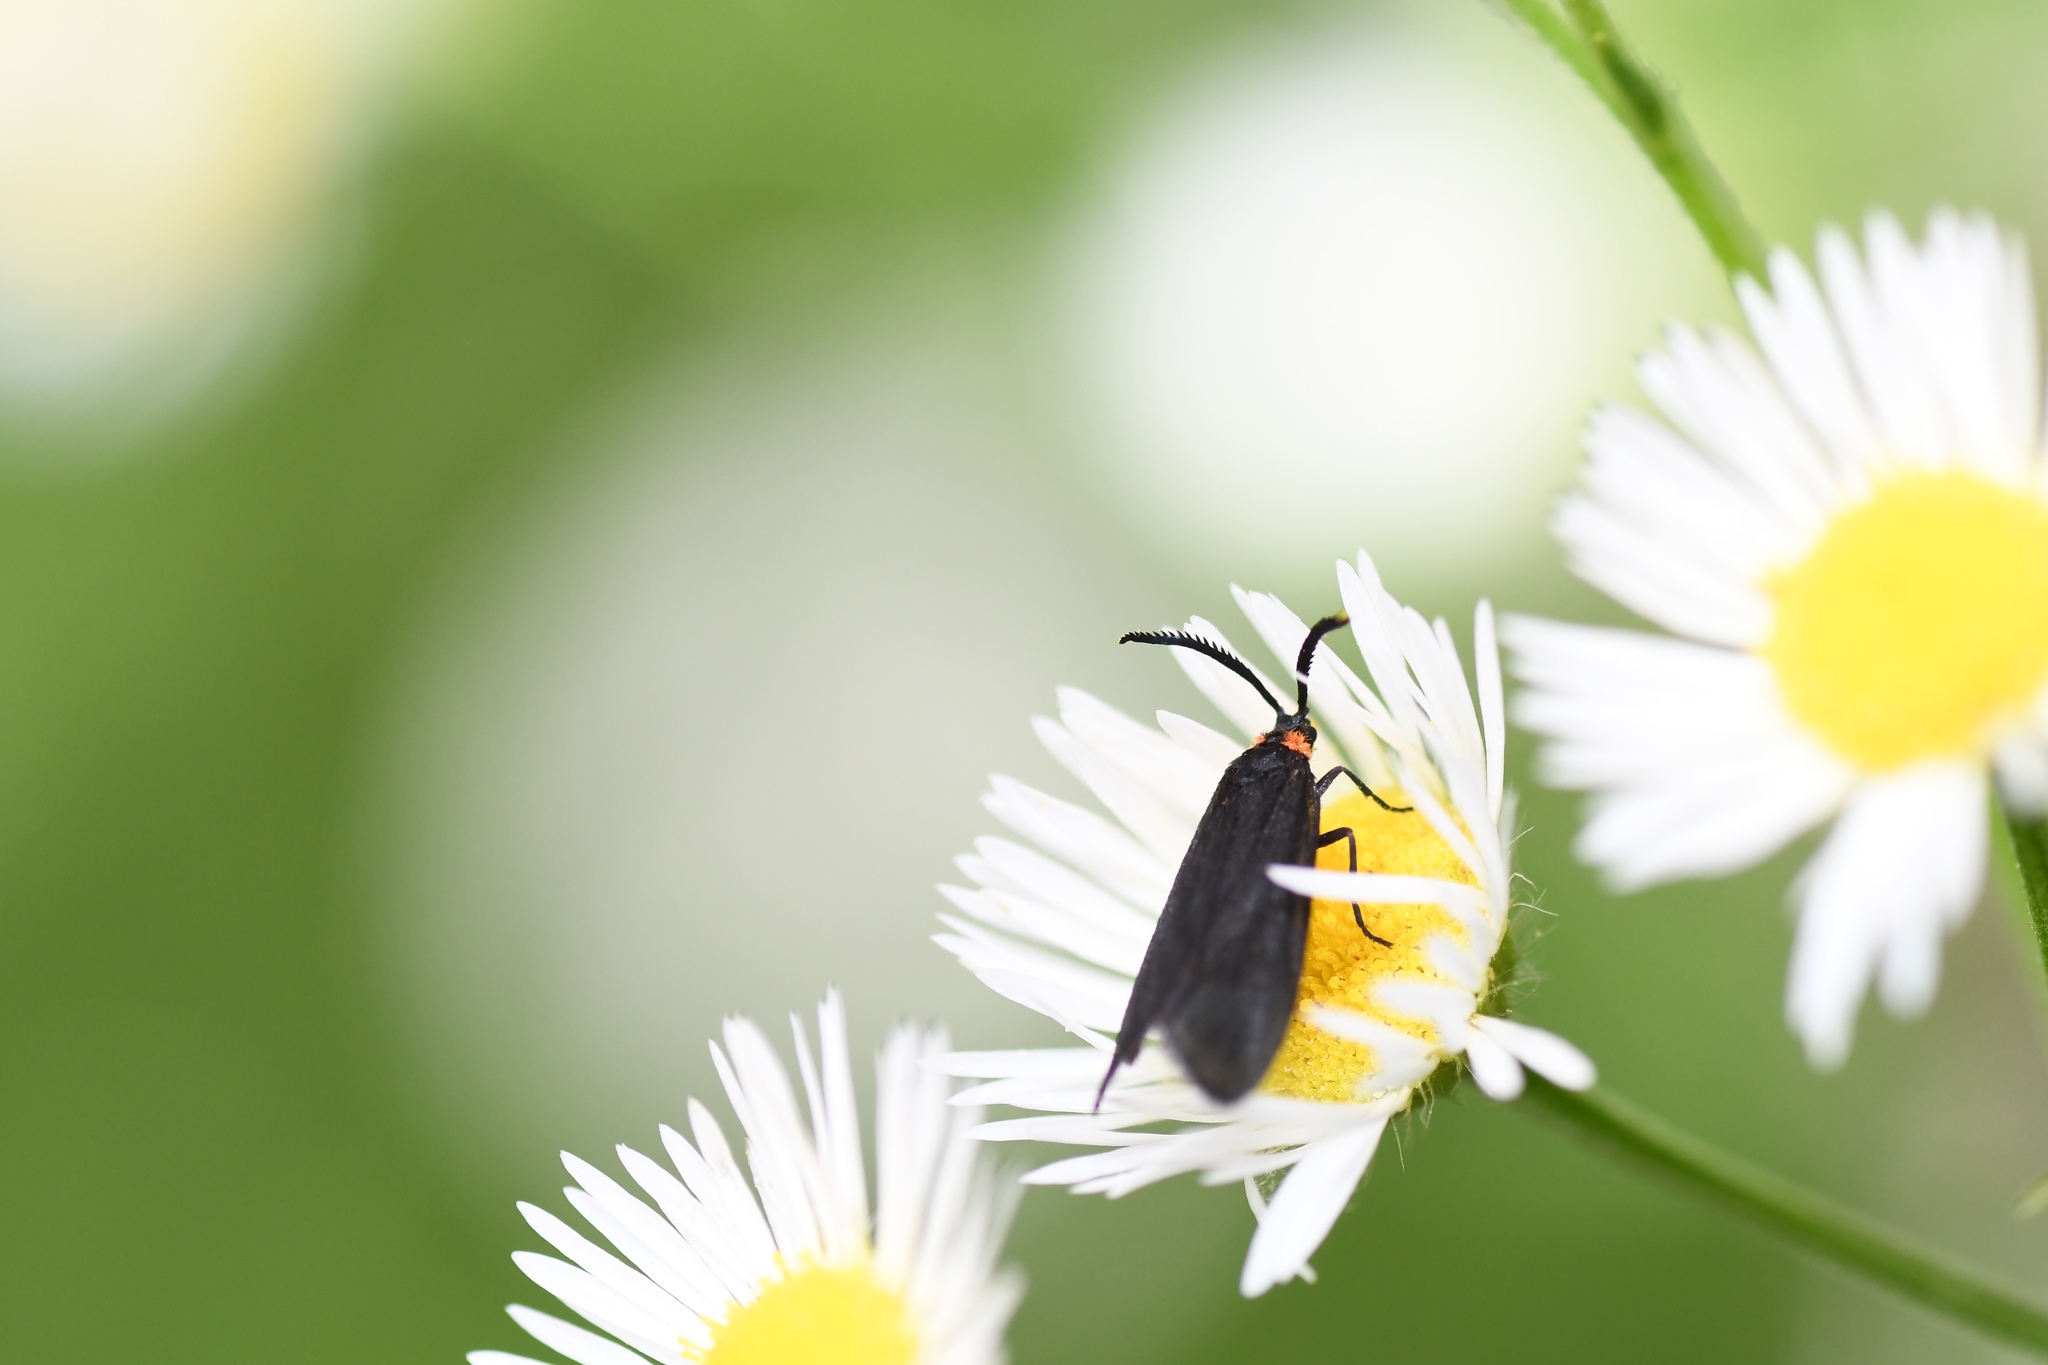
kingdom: Animalia
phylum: Arthropoda
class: Insecta
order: Lepidoptera
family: Zygaenidae
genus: Acoloithus
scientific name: Acoloithus falsarius
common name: Clemens' false skeletonizer
